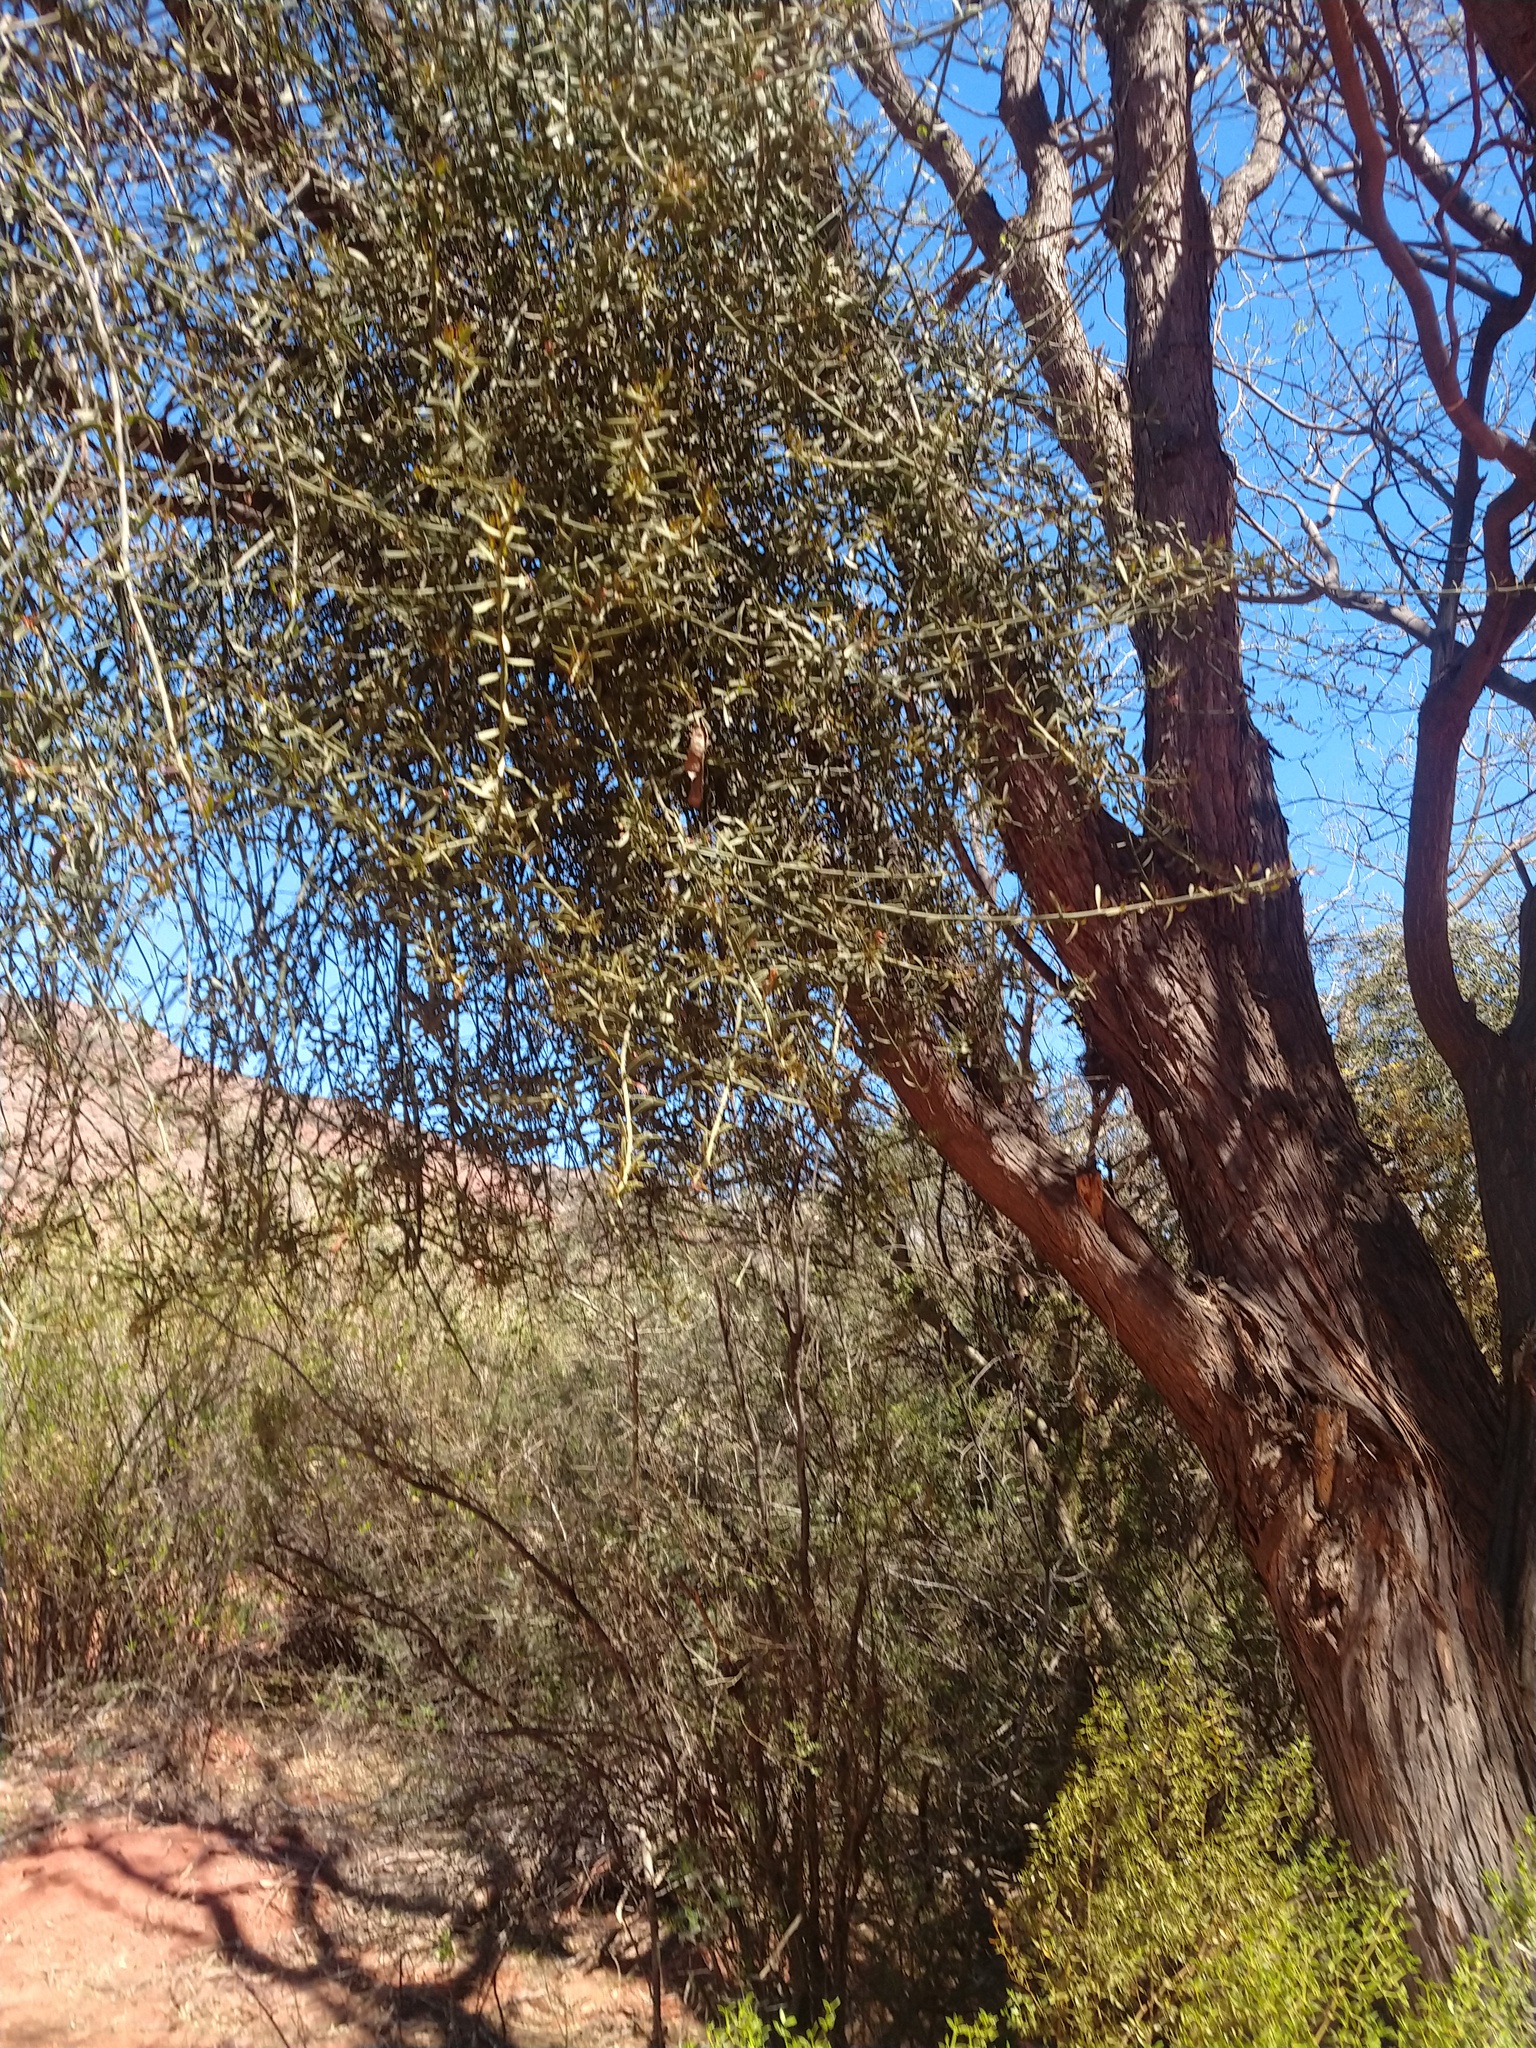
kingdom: Plantae
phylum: Tracheophyta
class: Magnoliopsida
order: Santalales
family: Loranthaceae
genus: Ligaria
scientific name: Ligaria cuneifolia
